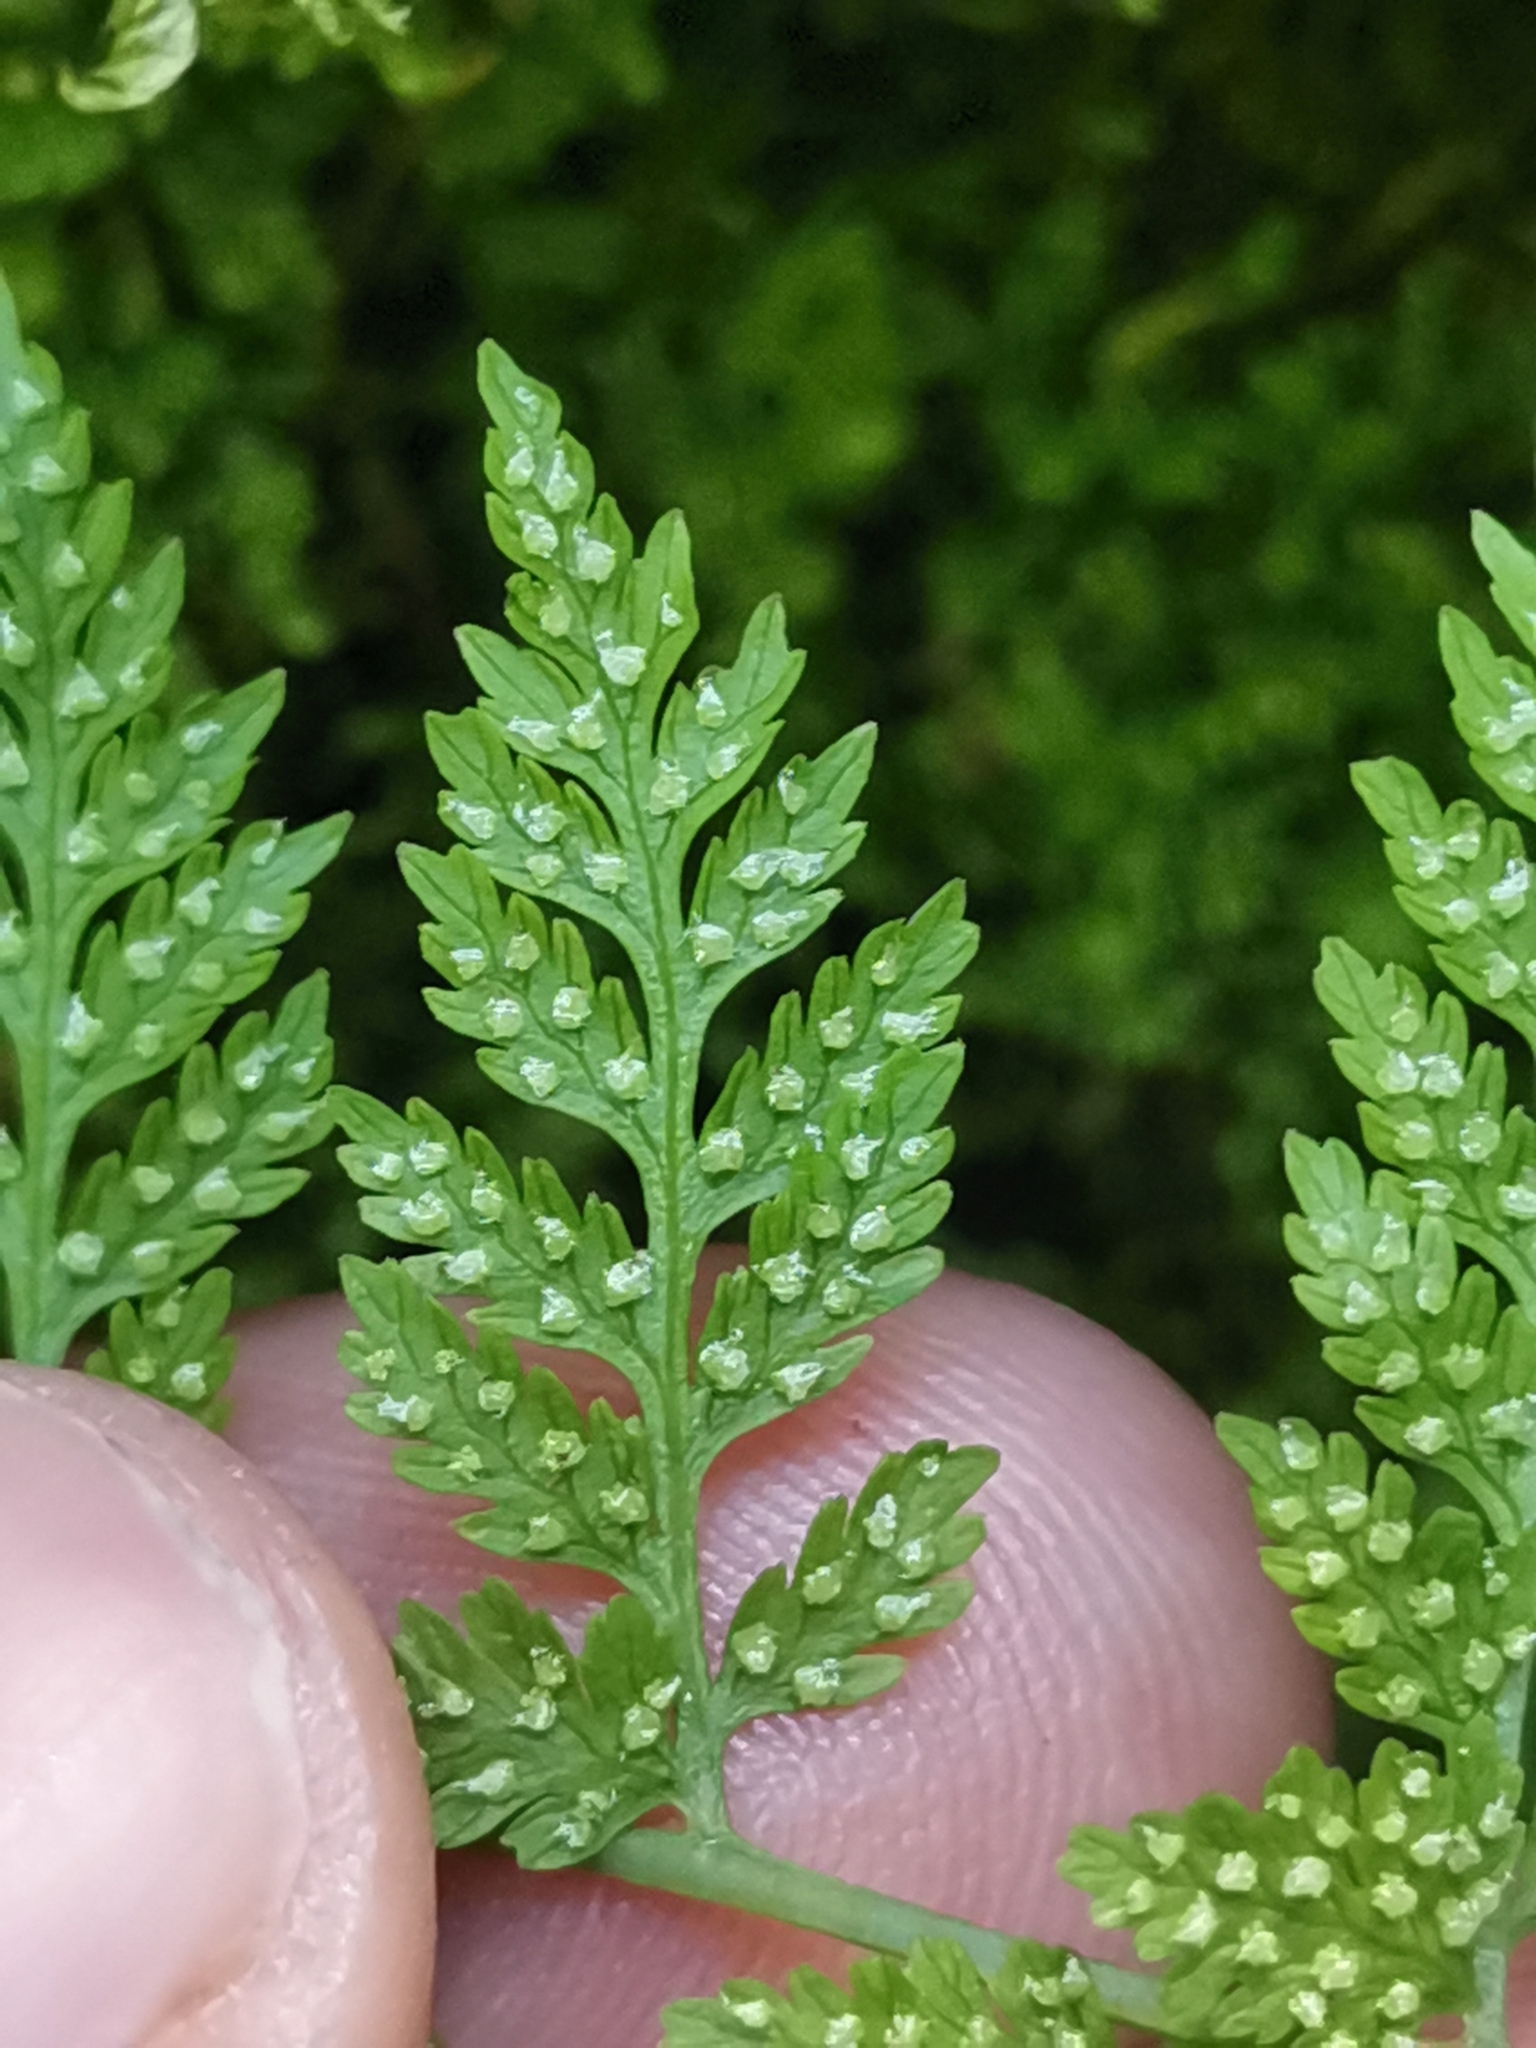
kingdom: Plantae
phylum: Tracheophyta
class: Polypodiopsida
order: Polypodiales
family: Cystopteridaceae
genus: Cystopteris
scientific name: Cystopteris fragilis
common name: Brittle bladder fern
